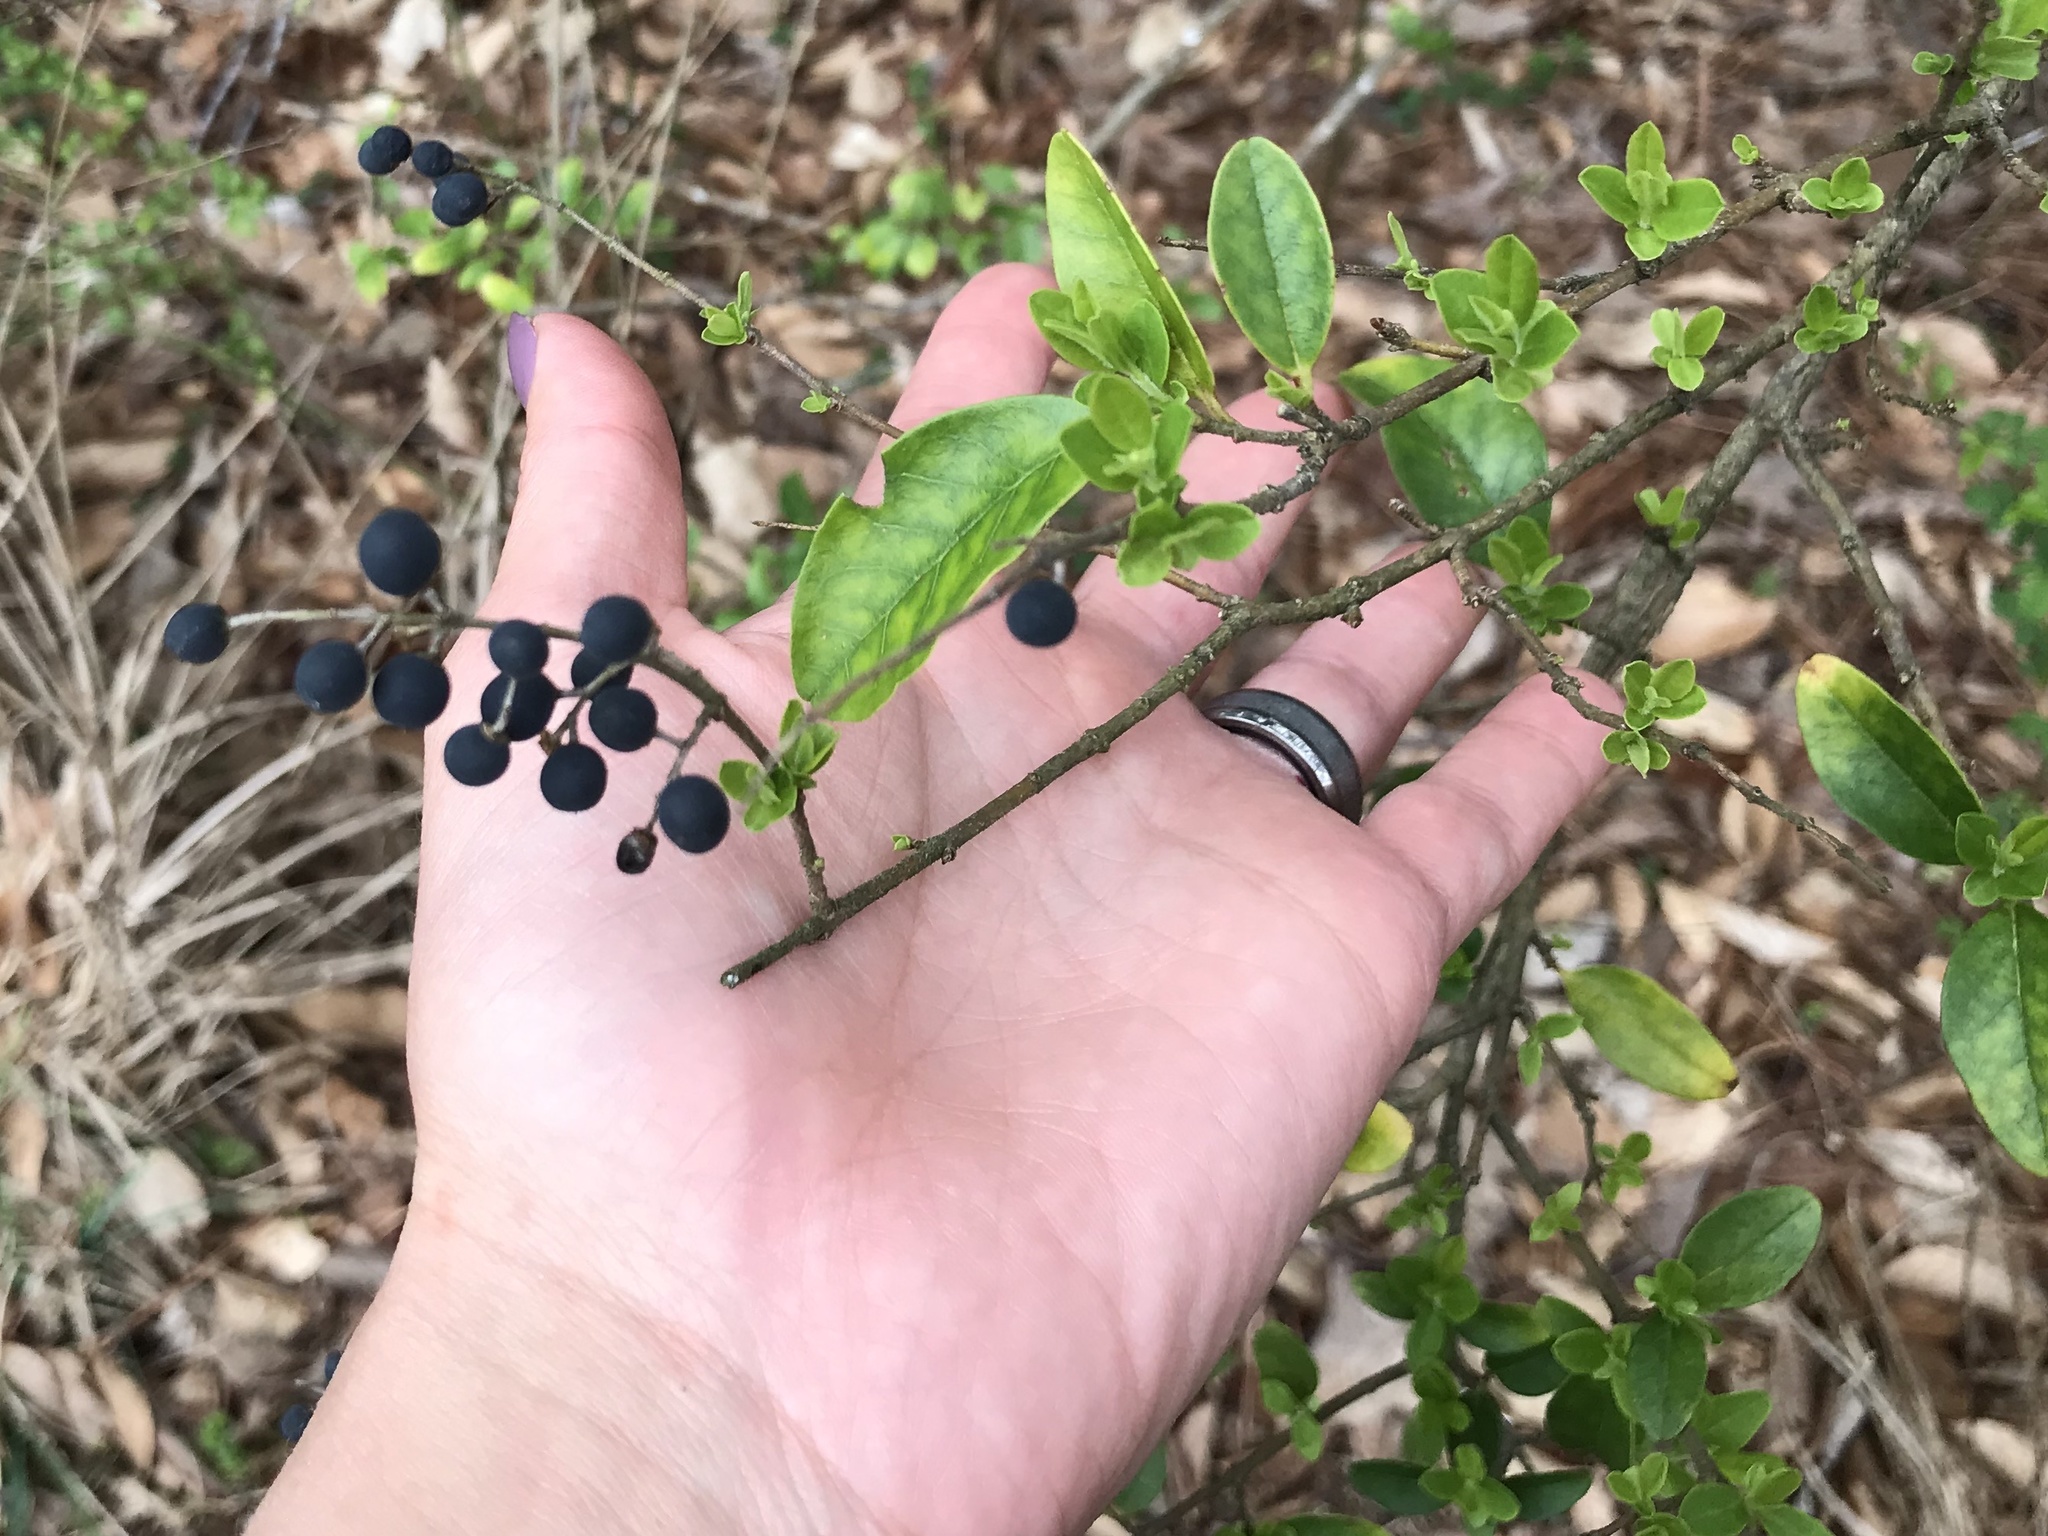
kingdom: Plantae
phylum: Tracheophyta
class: Magnoliopsida
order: Lamiales
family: Oleaceae
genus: Ligustrum
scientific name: Ligustrum sinense
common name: Chinese privet
